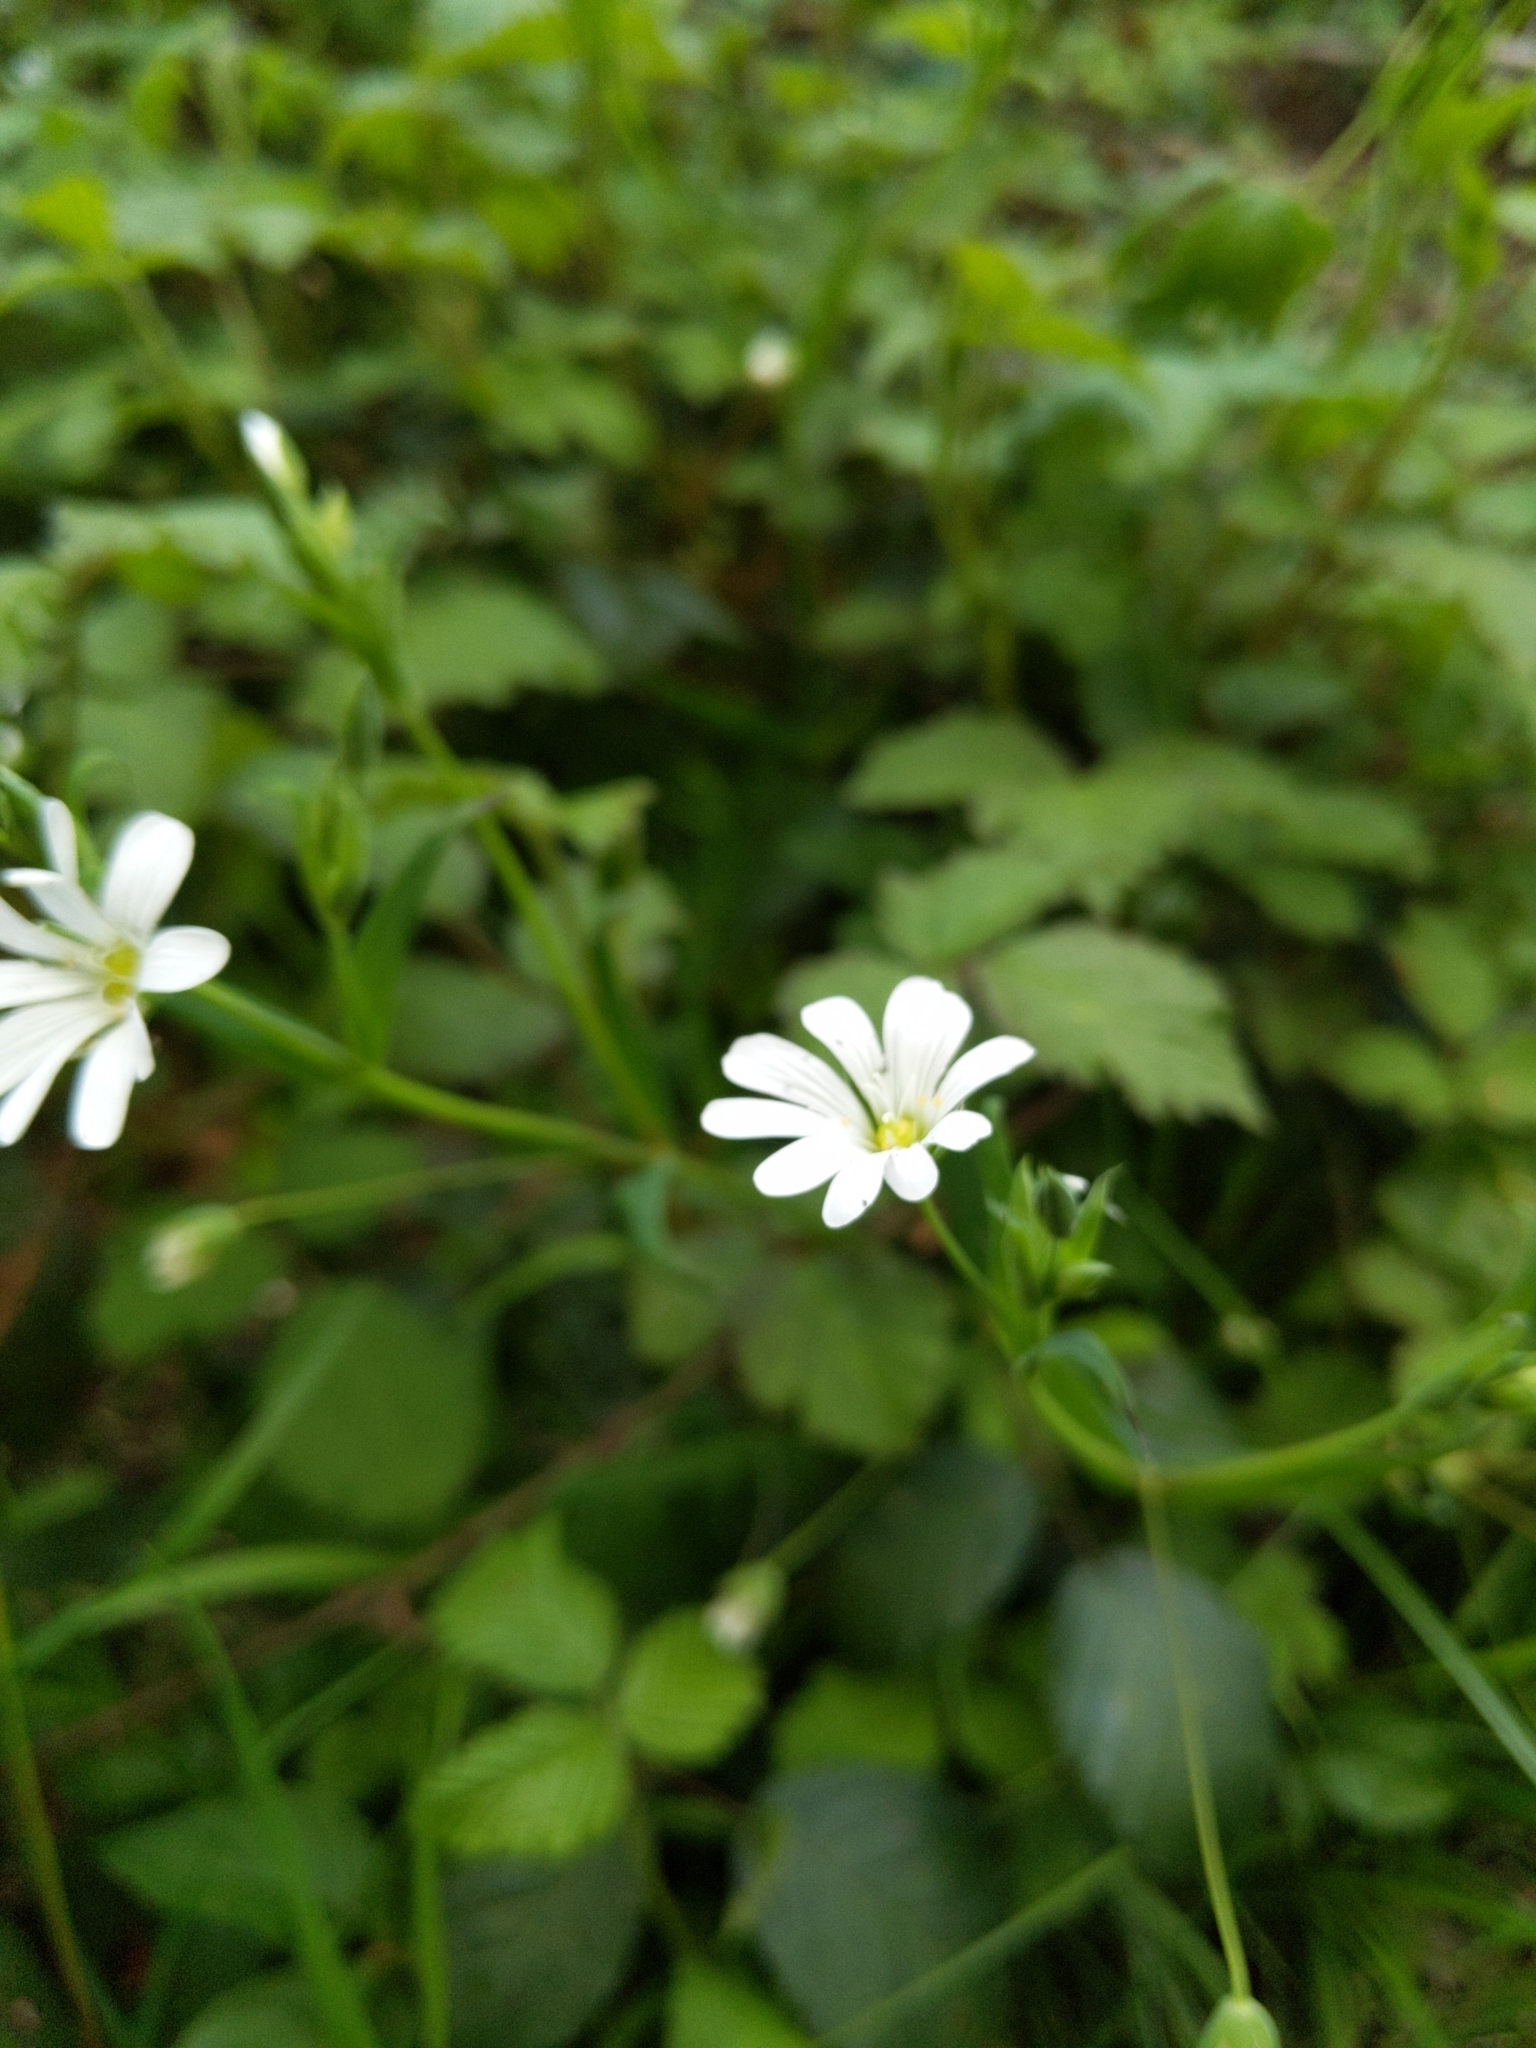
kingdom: Plantae
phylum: Tracheophyta
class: Magnoliopsida
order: Caryophyllales
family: Caryophyllaceae
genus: Rabelera
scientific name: Rabelera holostea
